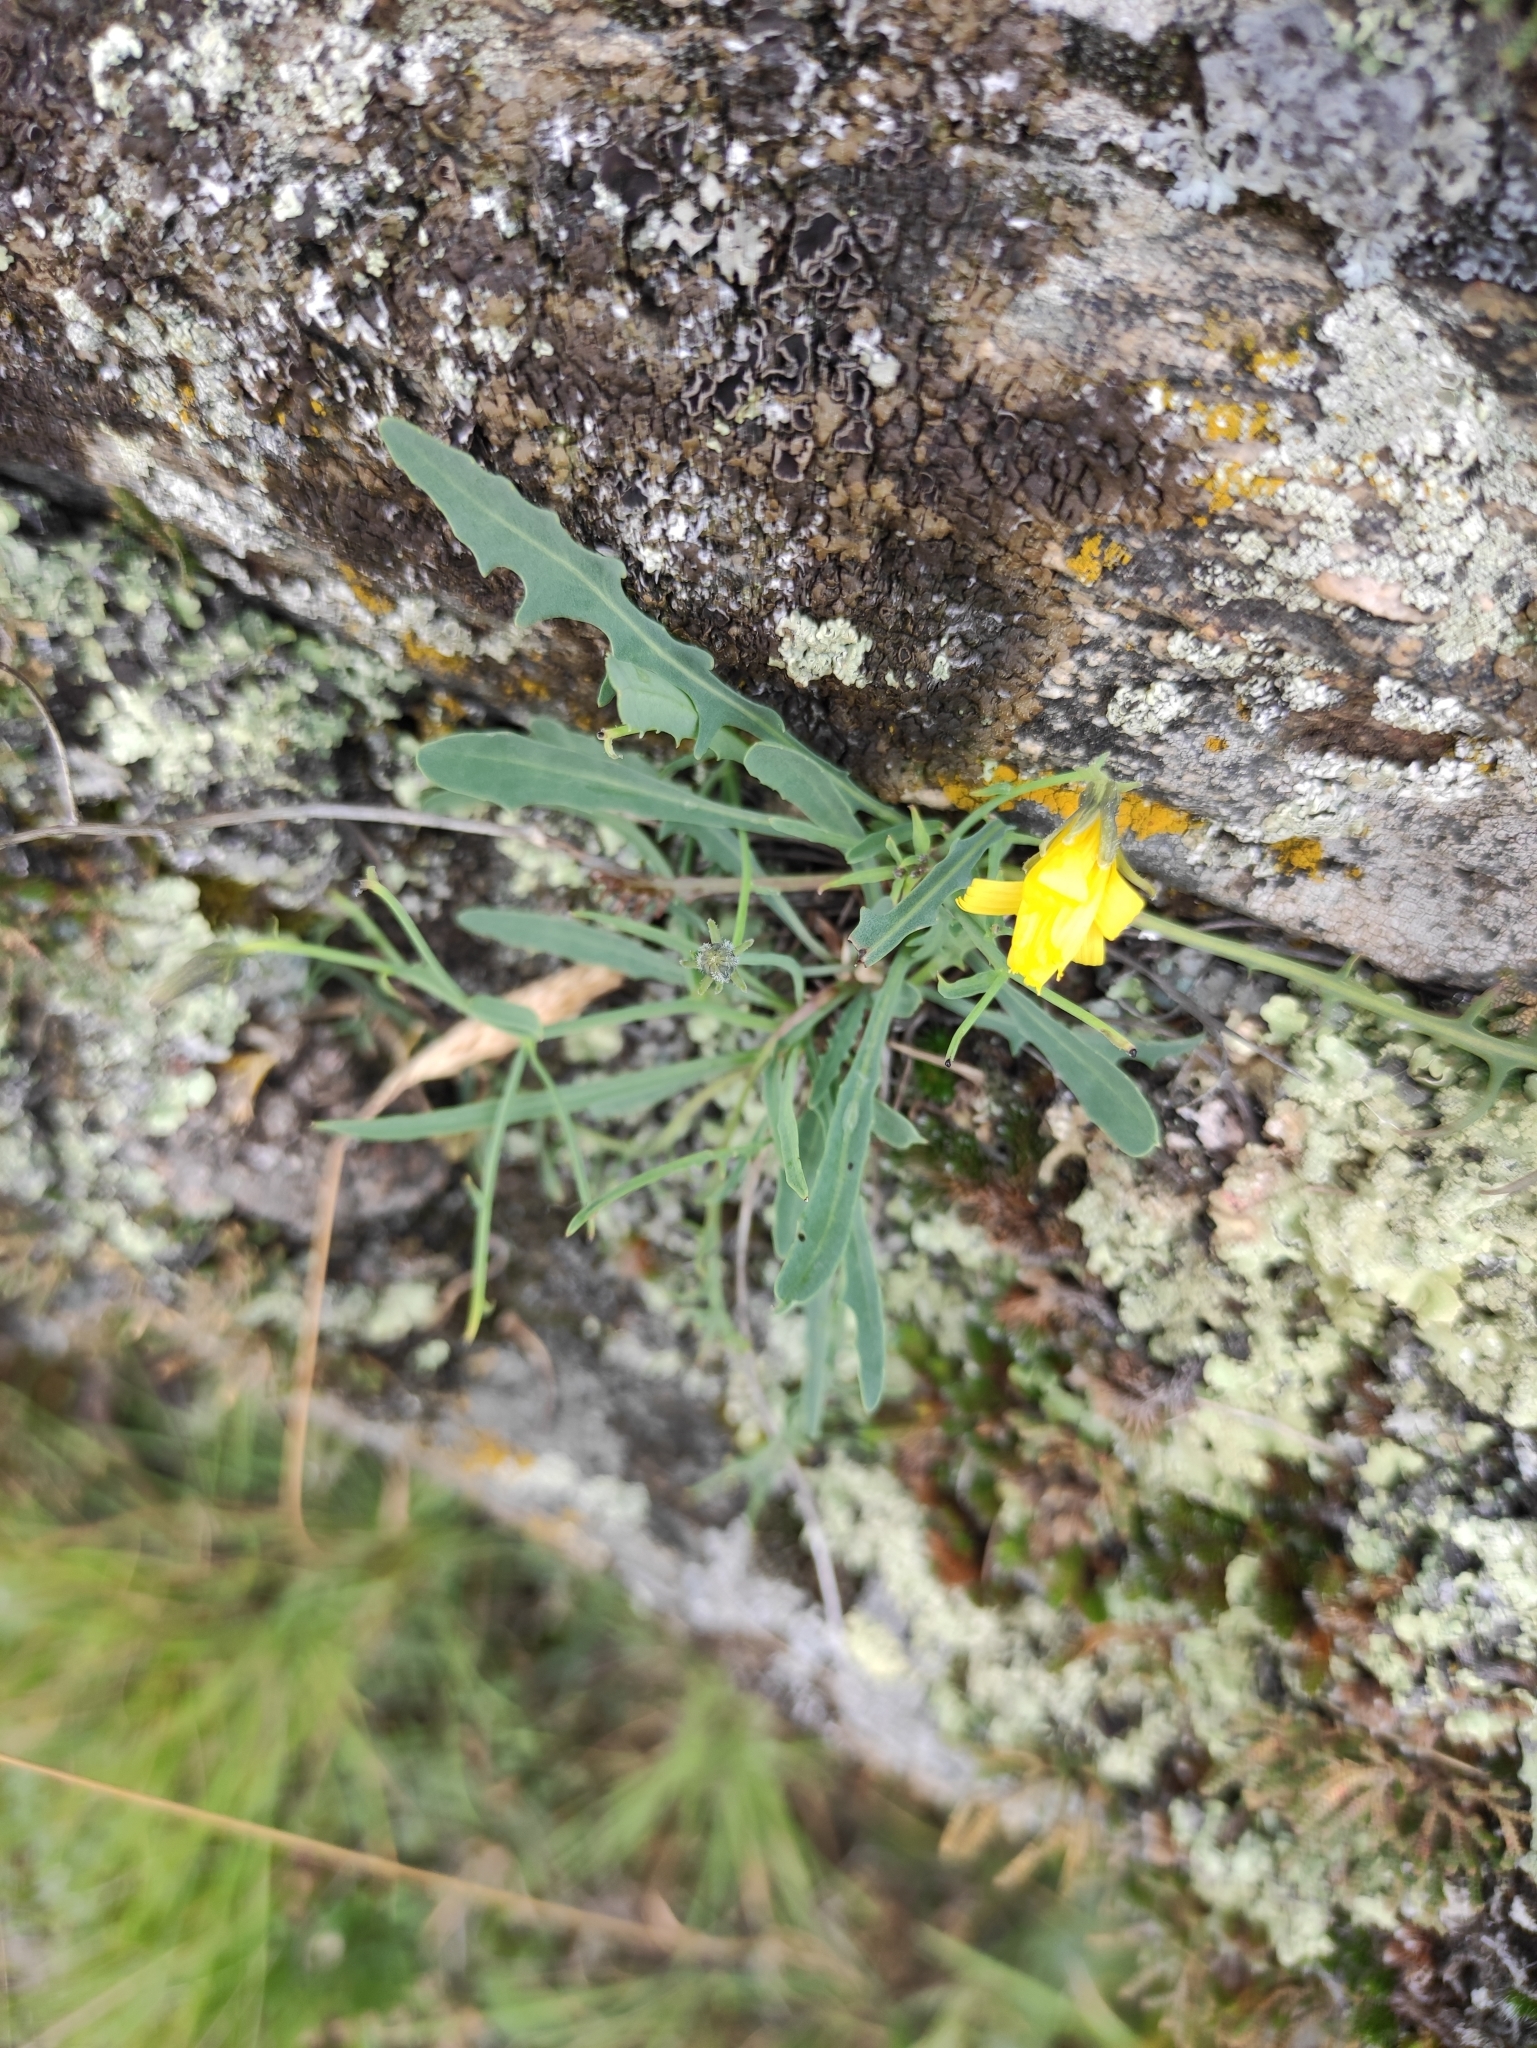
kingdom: Plantae
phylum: Tracheophyta
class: Magnoliopsida
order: Asterales
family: Asteraceae
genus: Crepidiastrum
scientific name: Crepidiastrum tenuifolium
